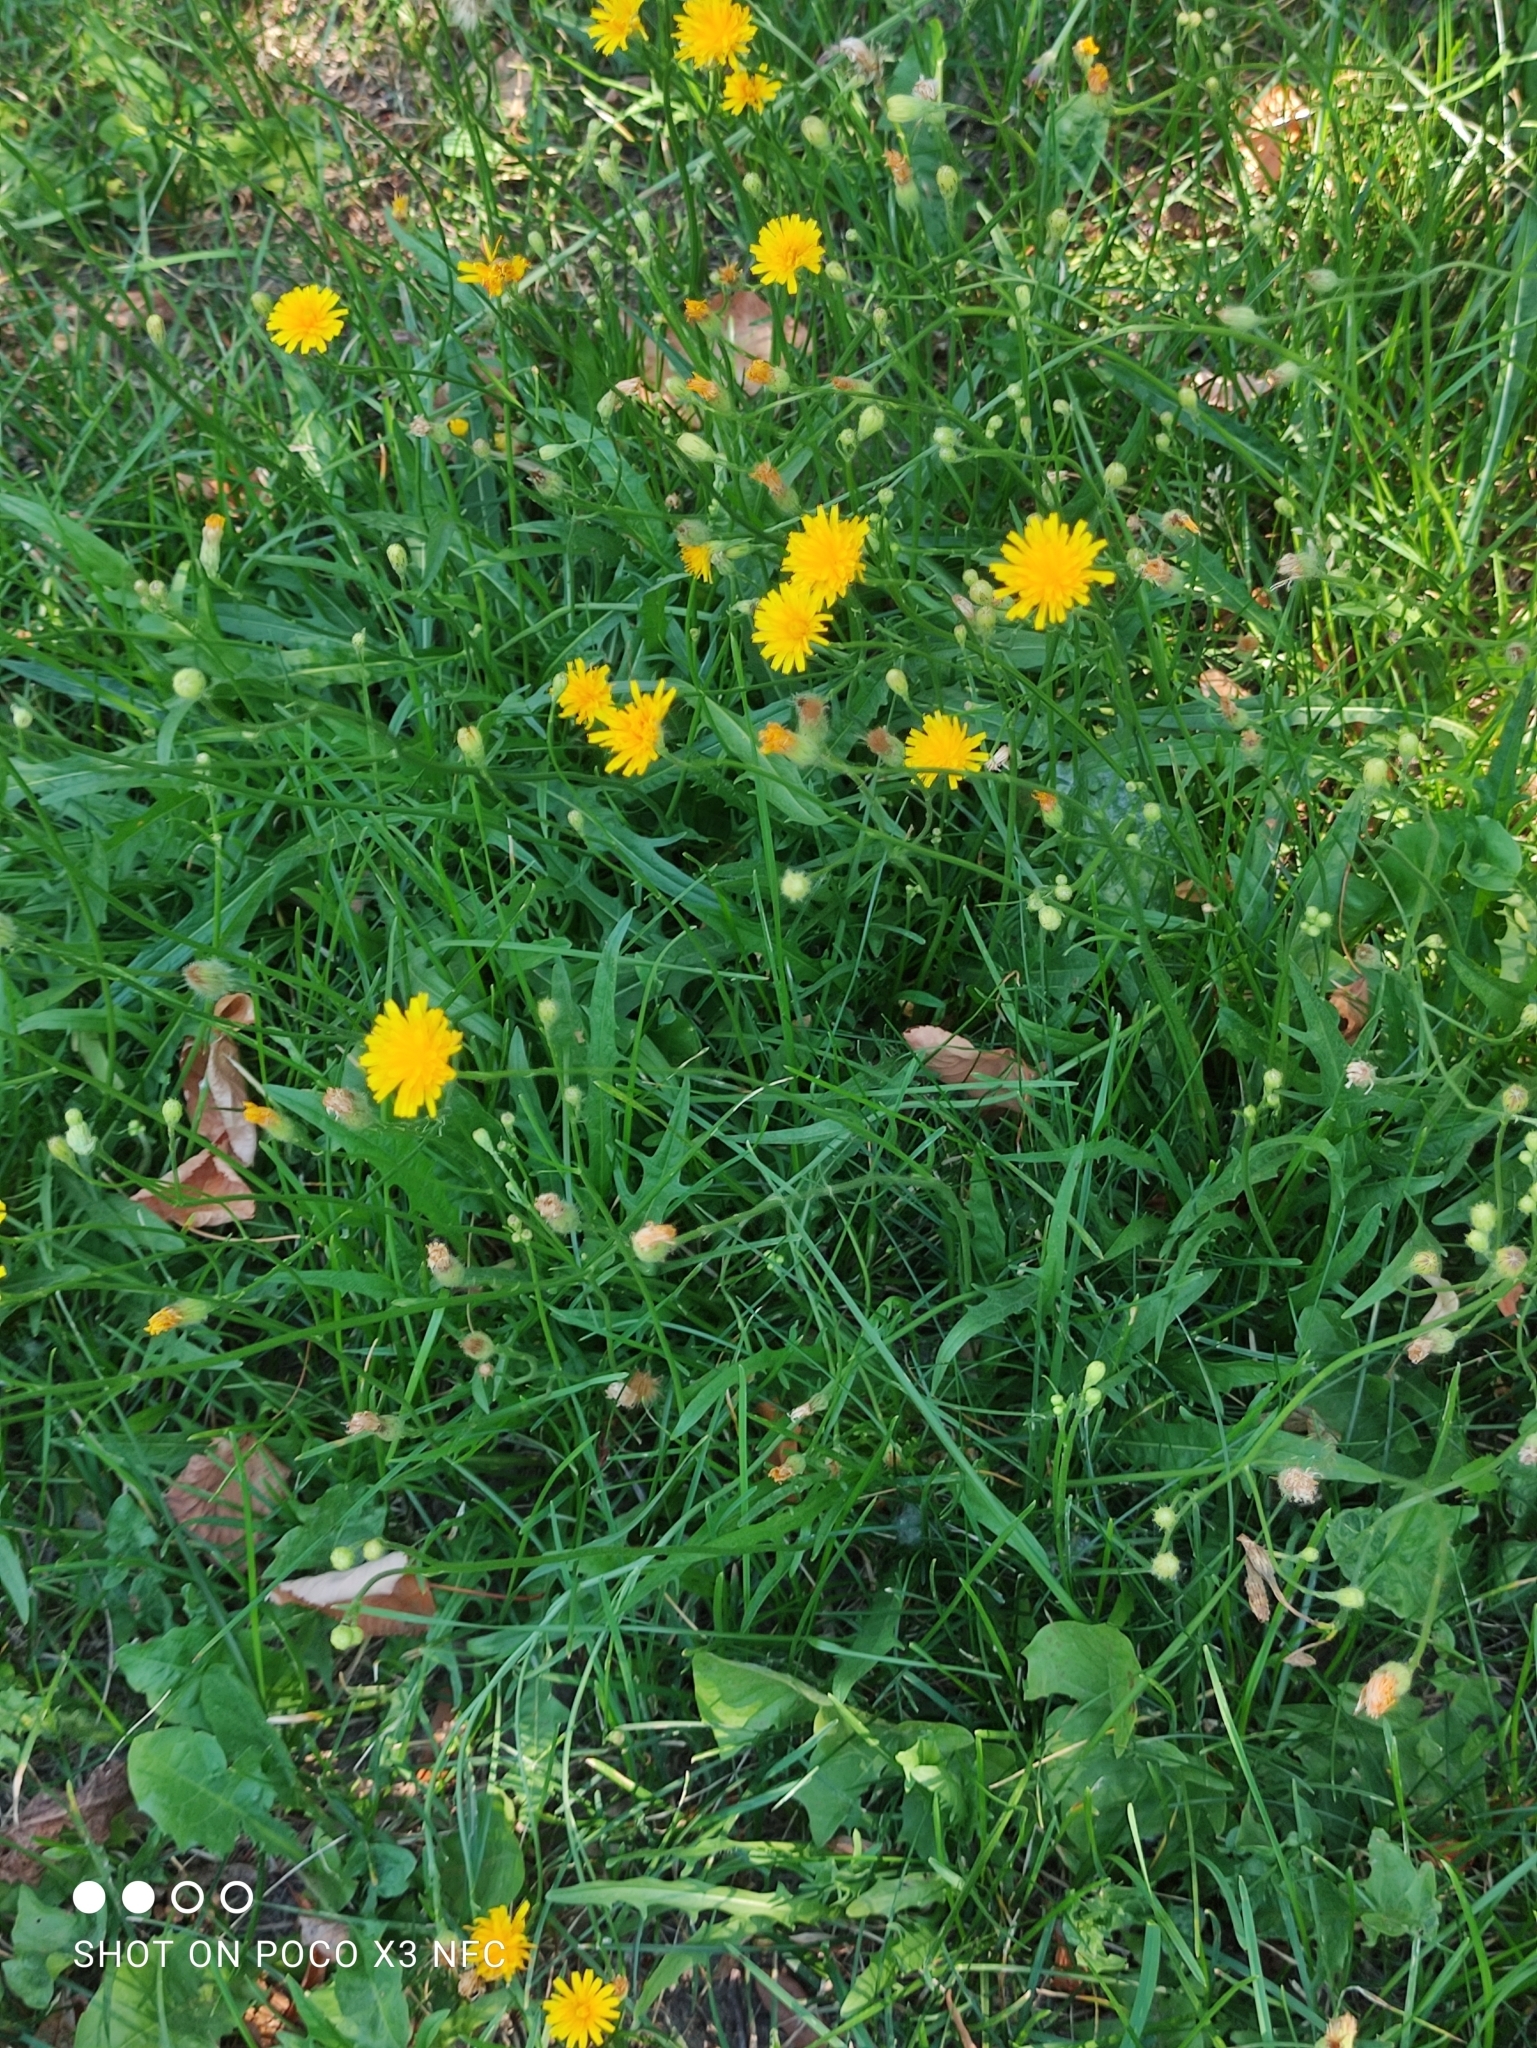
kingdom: Plantae
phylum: Tracheophyta
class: Magnoliopsida
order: Asterales
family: Asteraceae
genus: Scorzoneroides
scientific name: Scorzoneroides autumnalis
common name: Autumn hawkbit
